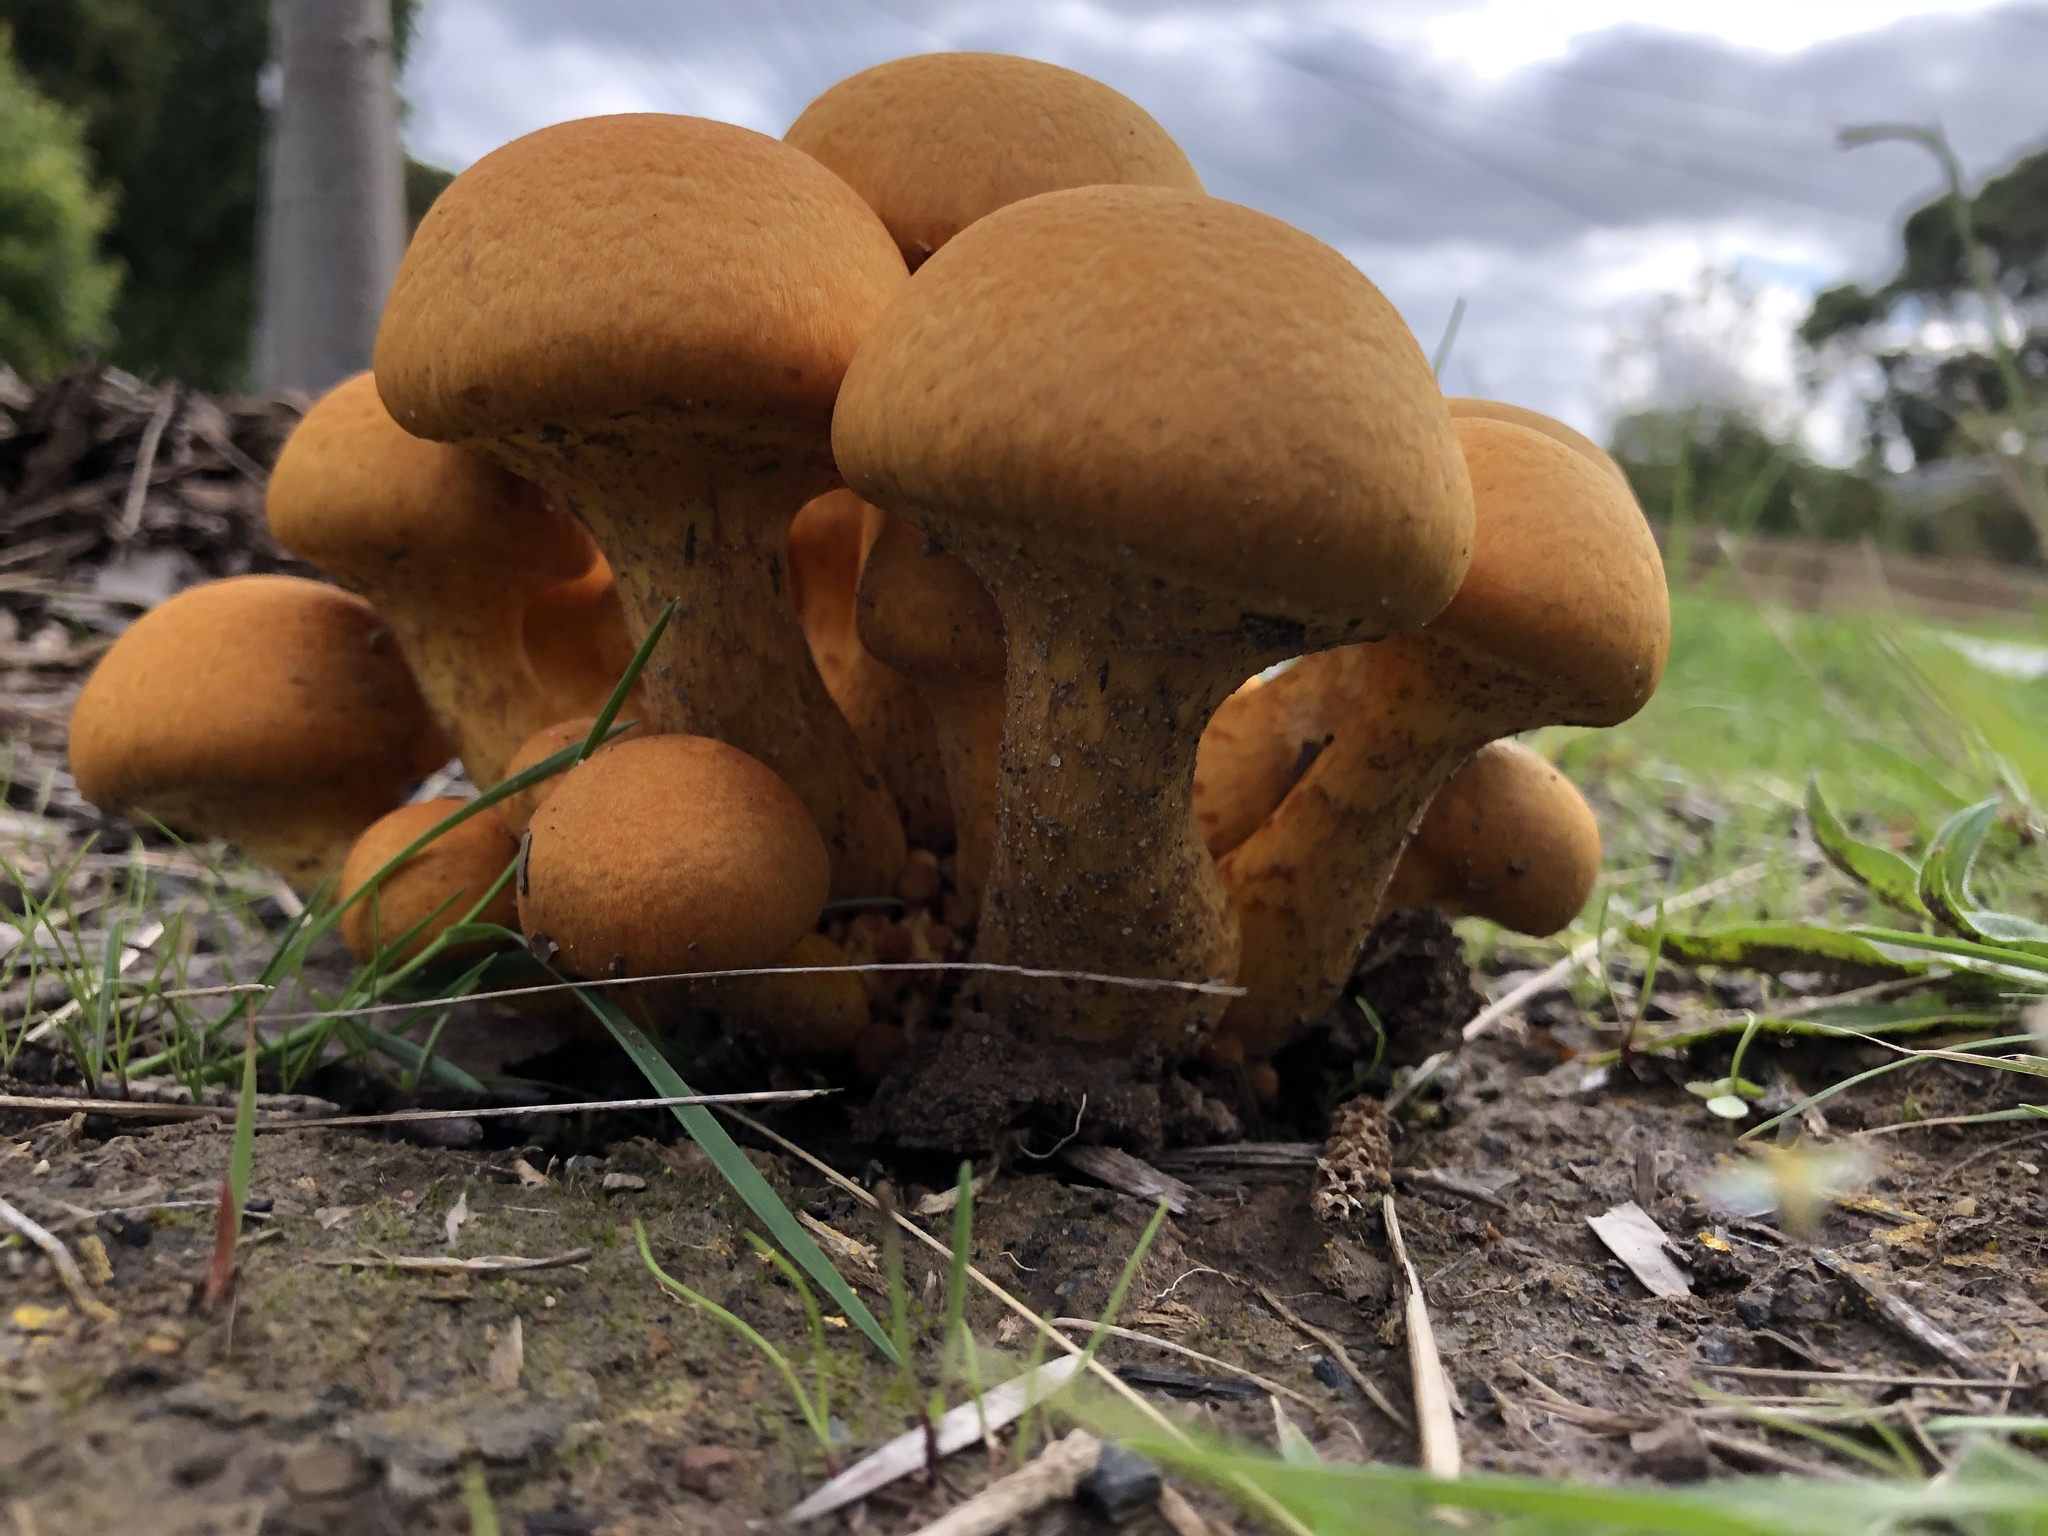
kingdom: Fungi
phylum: Basidiomycota
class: Agaricomycetes
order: Agaricales
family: Hymenogastraceae
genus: Gymnopilus
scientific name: Gymnopilus junonius
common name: Spectacular rustgill
